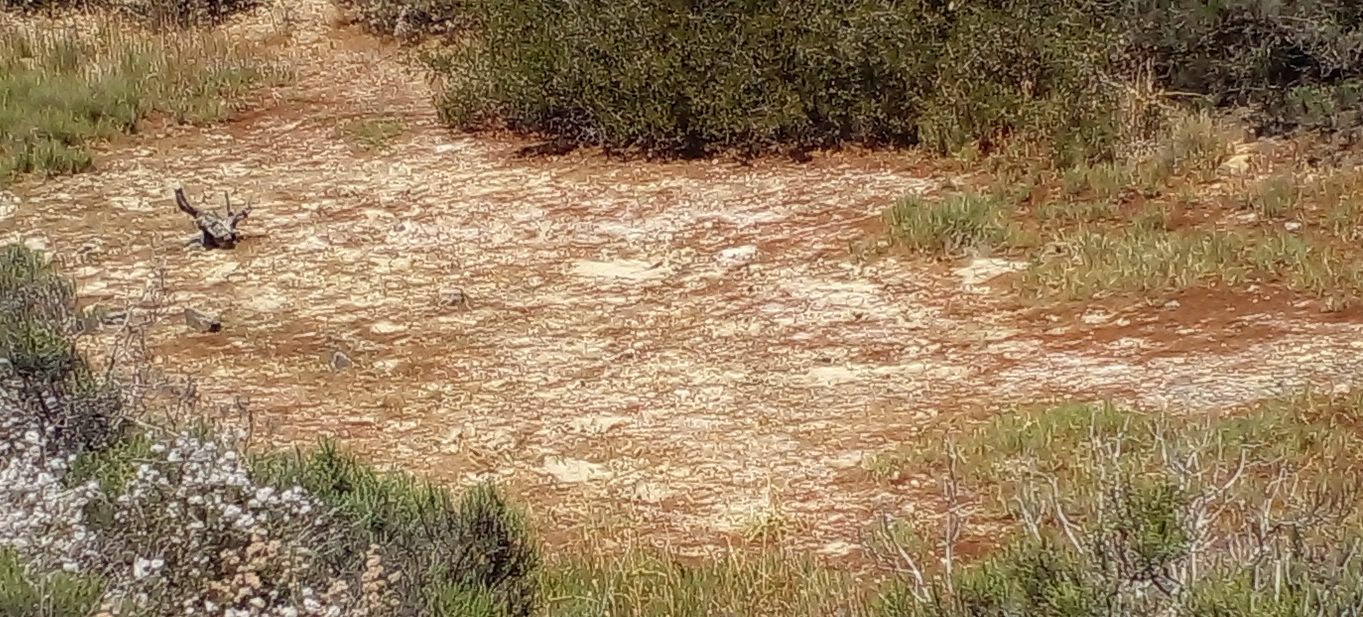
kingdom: Plantae
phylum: Tracheophyta
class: Magnoliopsida
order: Asterales
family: Asteraceae
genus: Eriocephalus
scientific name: Eriocephalus africanus
